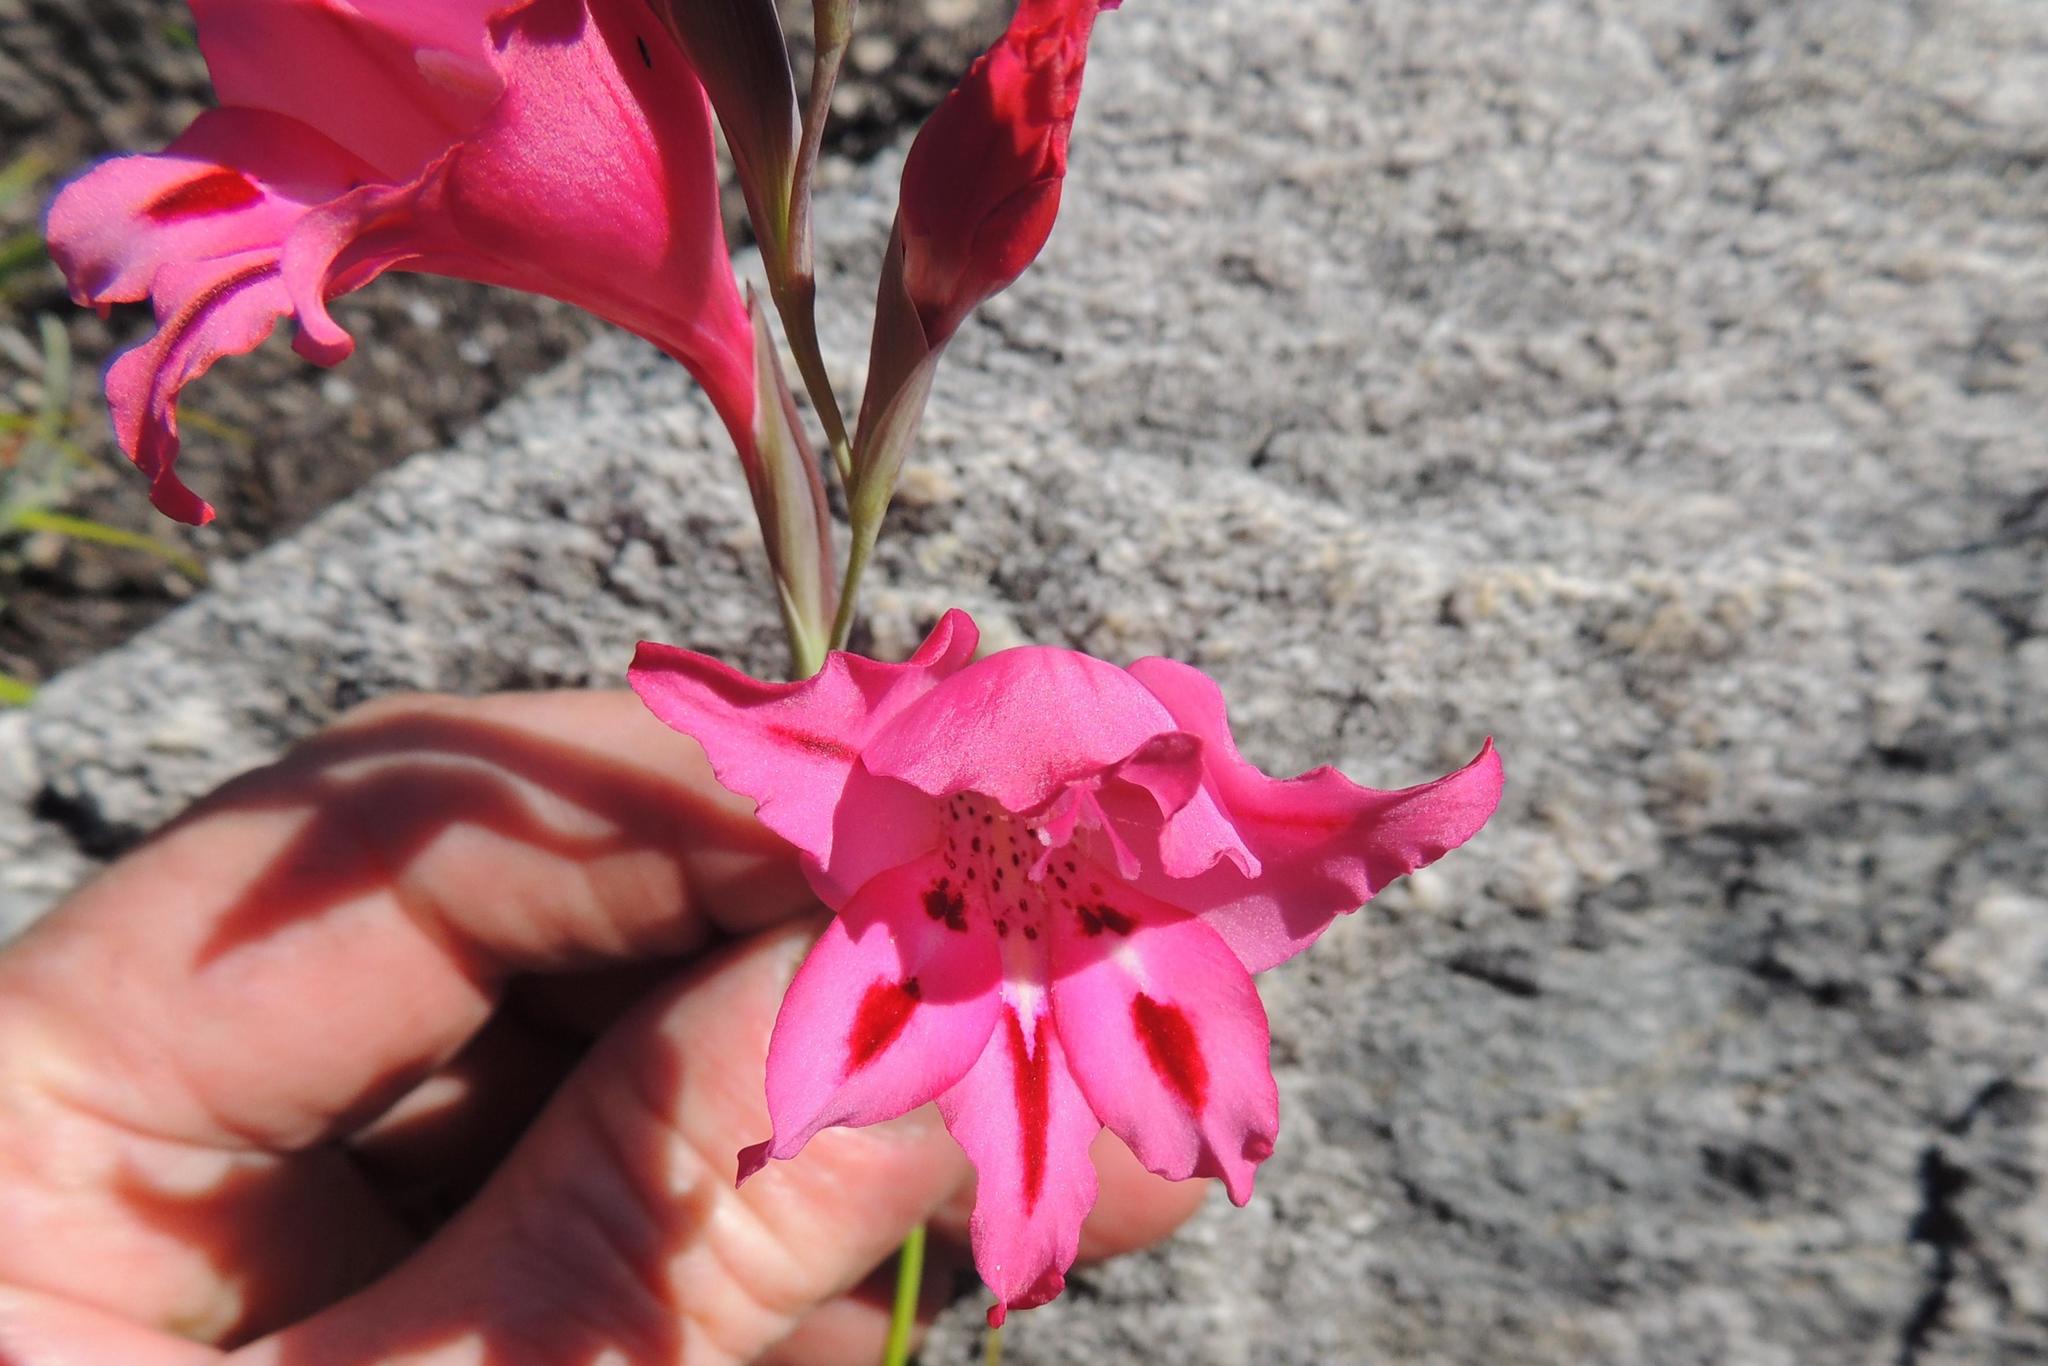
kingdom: Plantae
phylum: Tracheophyta
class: Liliopsida
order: Asparagales
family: Iridaceae
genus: Gladiolus
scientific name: Gladiolus crispulatus
